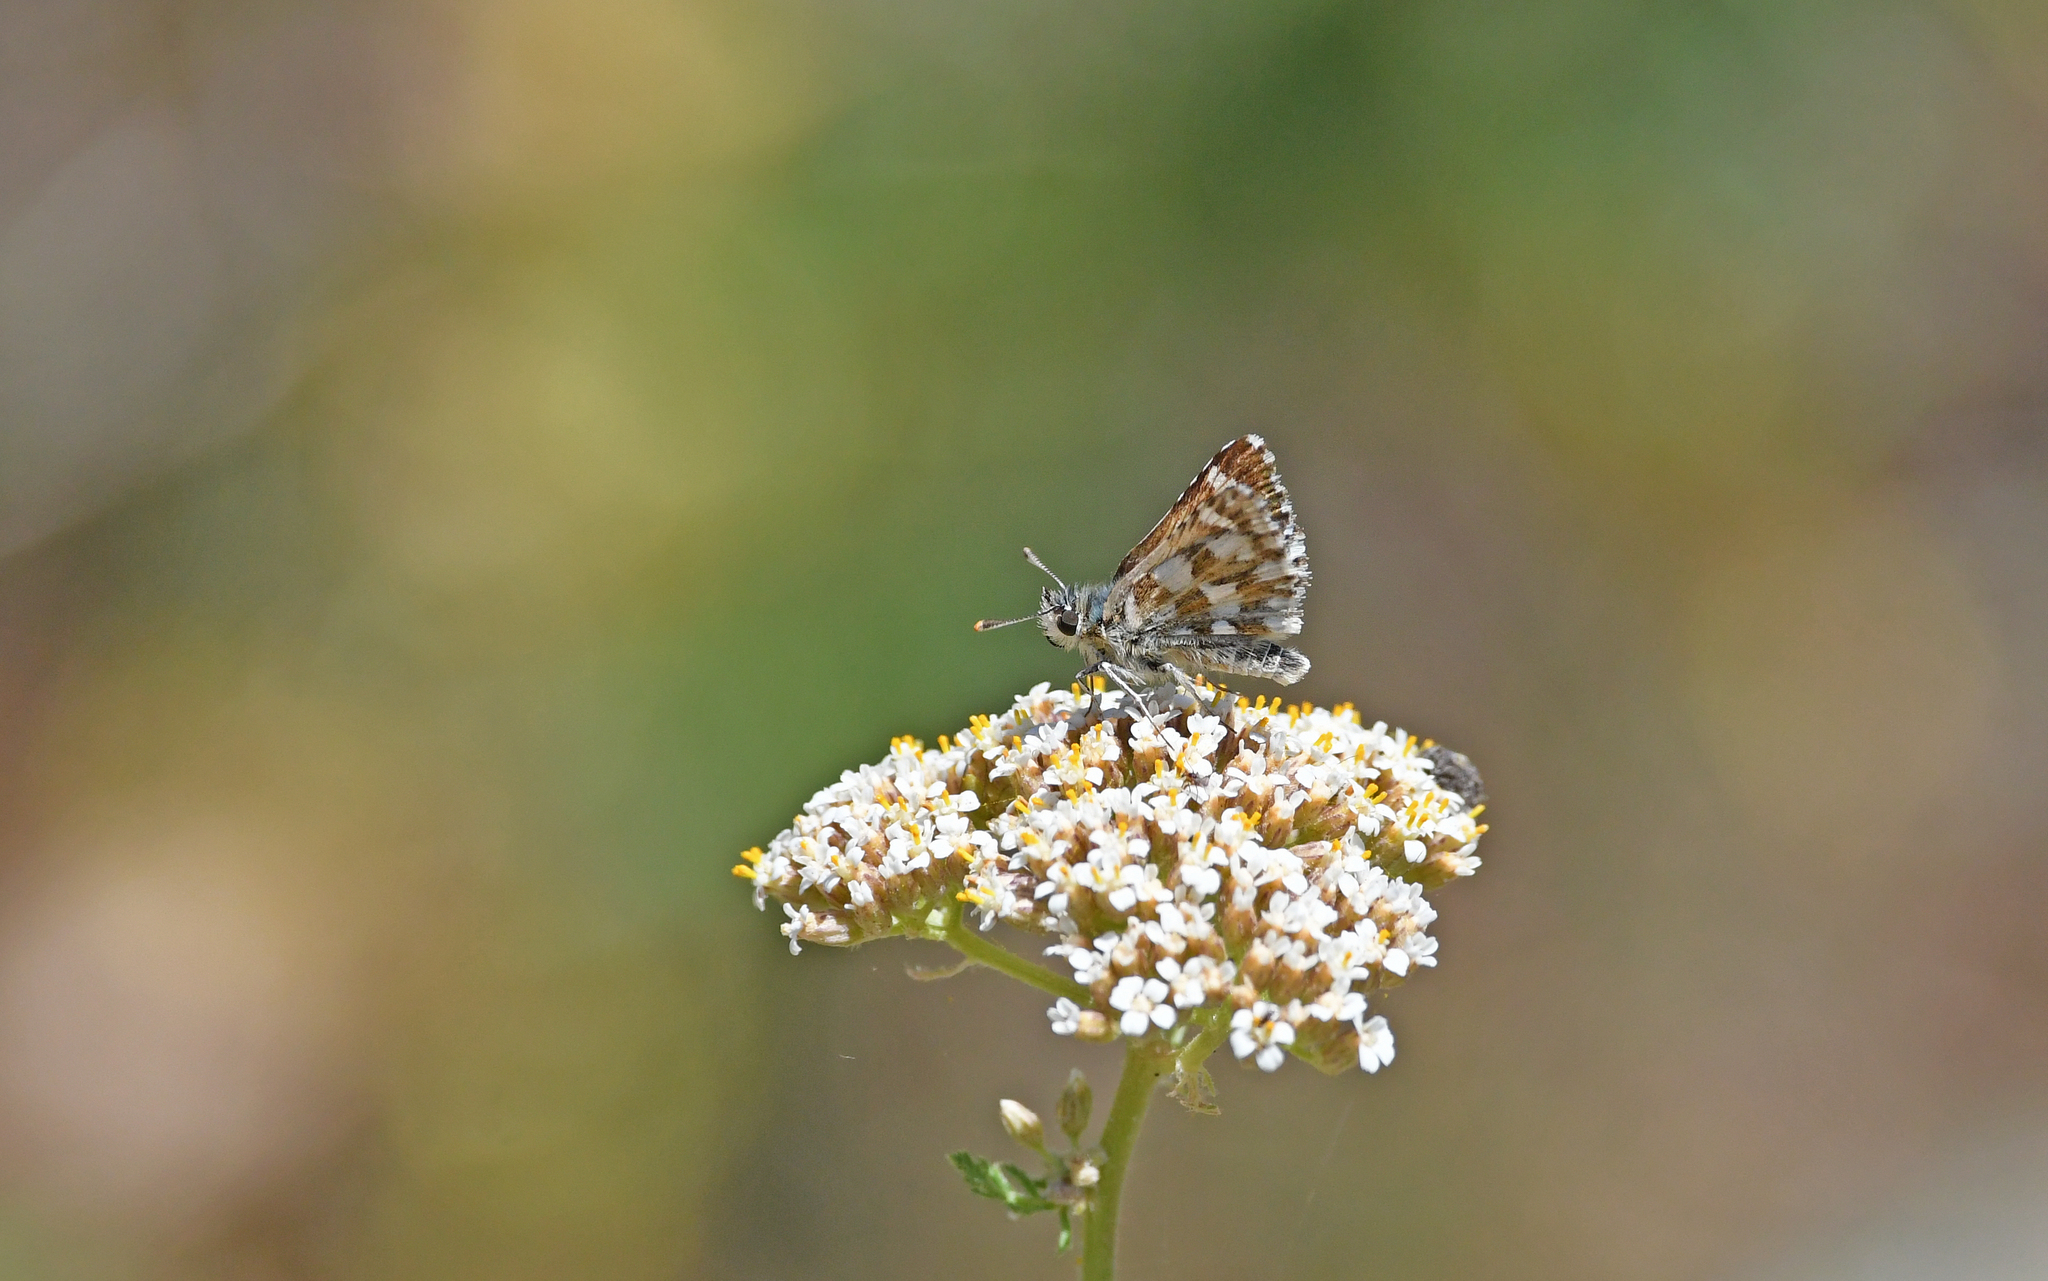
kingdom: Animalia
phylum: Arthropoda
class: Insecta
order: Lepidoptera
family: Hesperiidae
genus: Spialia
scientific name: Spialia sertorius
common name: Red underwing skipper
